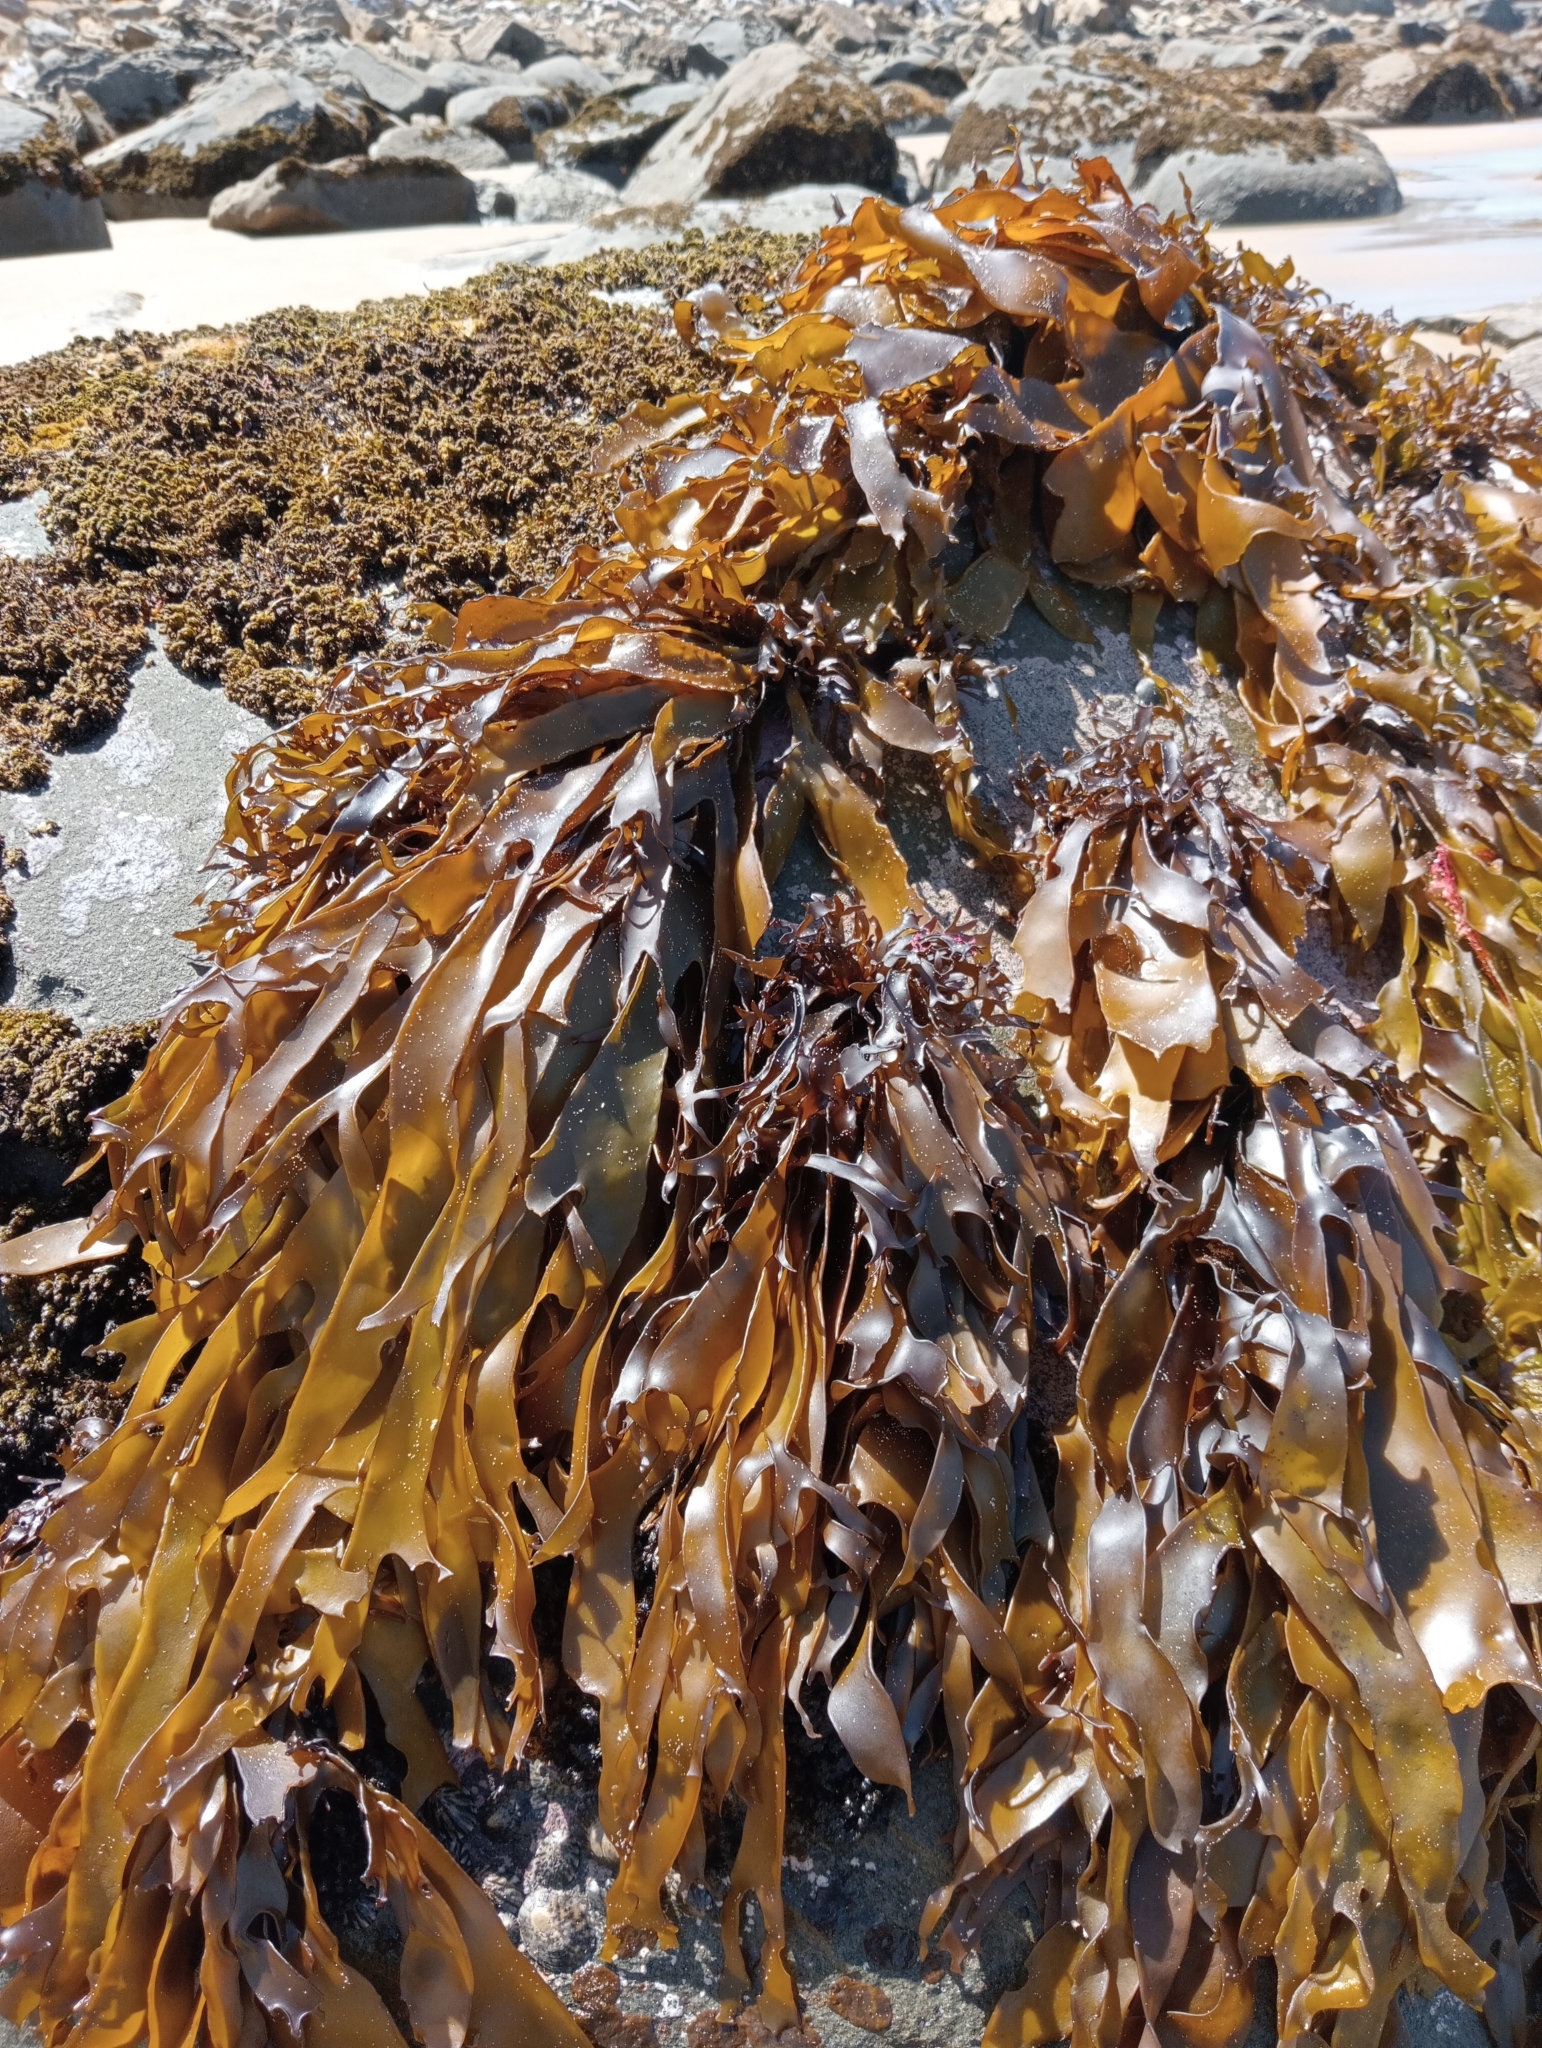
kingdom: Plantae
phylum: Rhodophyta
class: Florideophyceae
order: Halymeniales
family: Halymeniaceae
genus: Pachymenia
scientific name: Pachymenia dichotoma
